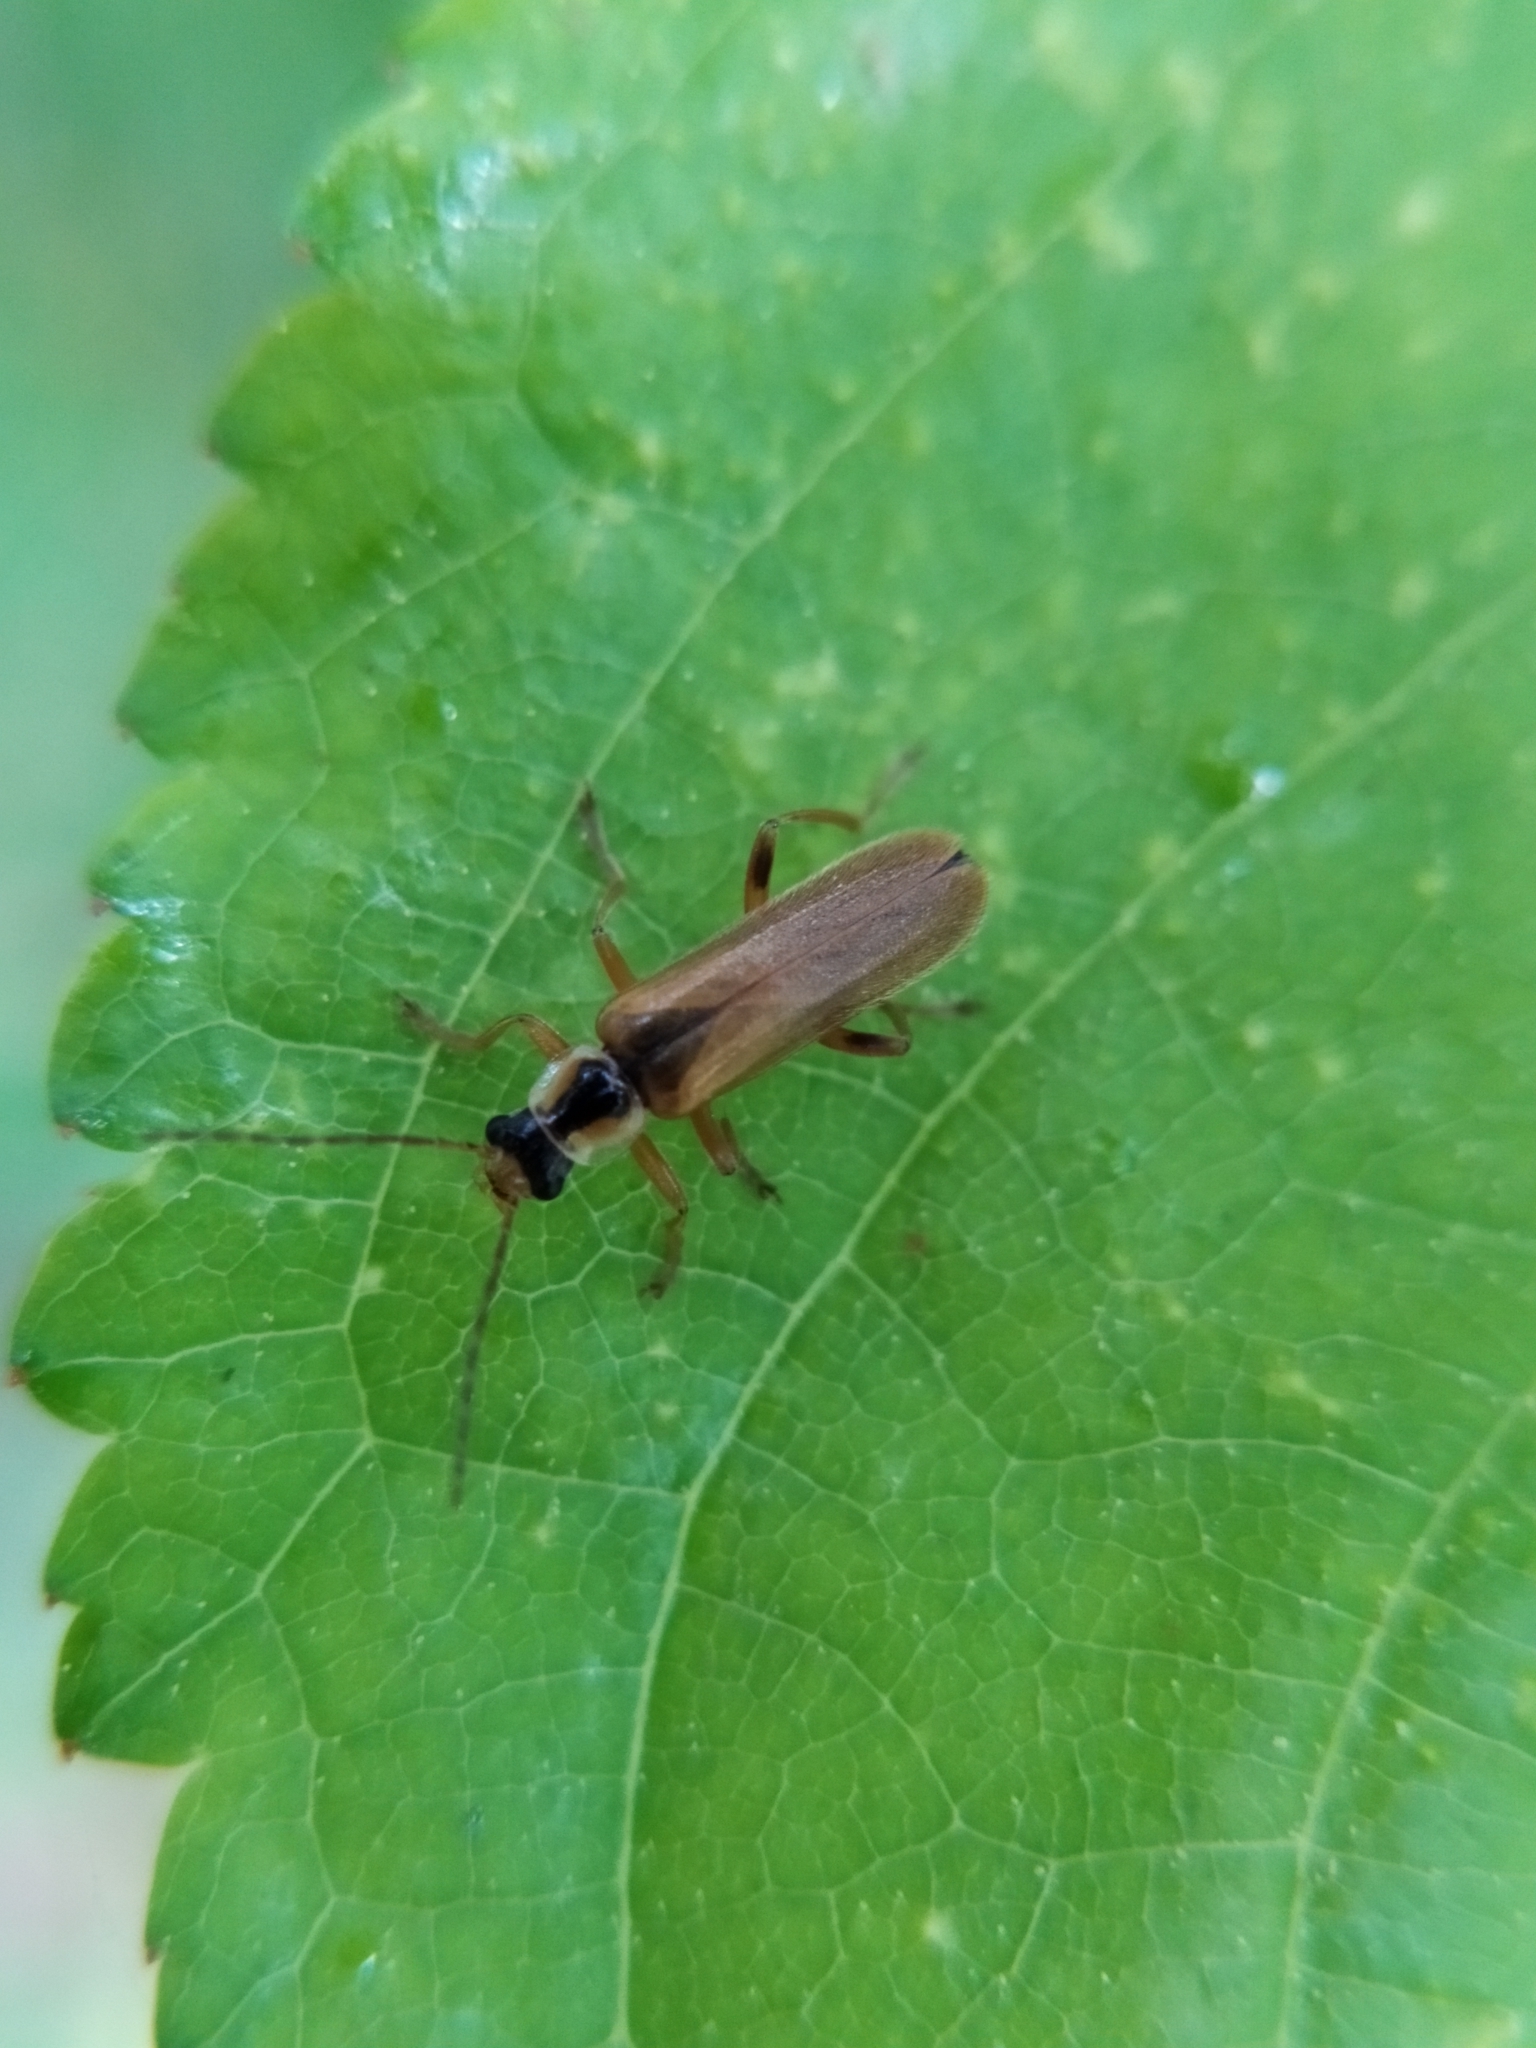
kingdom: Animalia
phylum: Arthropoda
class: Insecta
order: Coleoptera
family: Cantharidae
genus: Cantharis
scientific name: Cantharis decipiens
